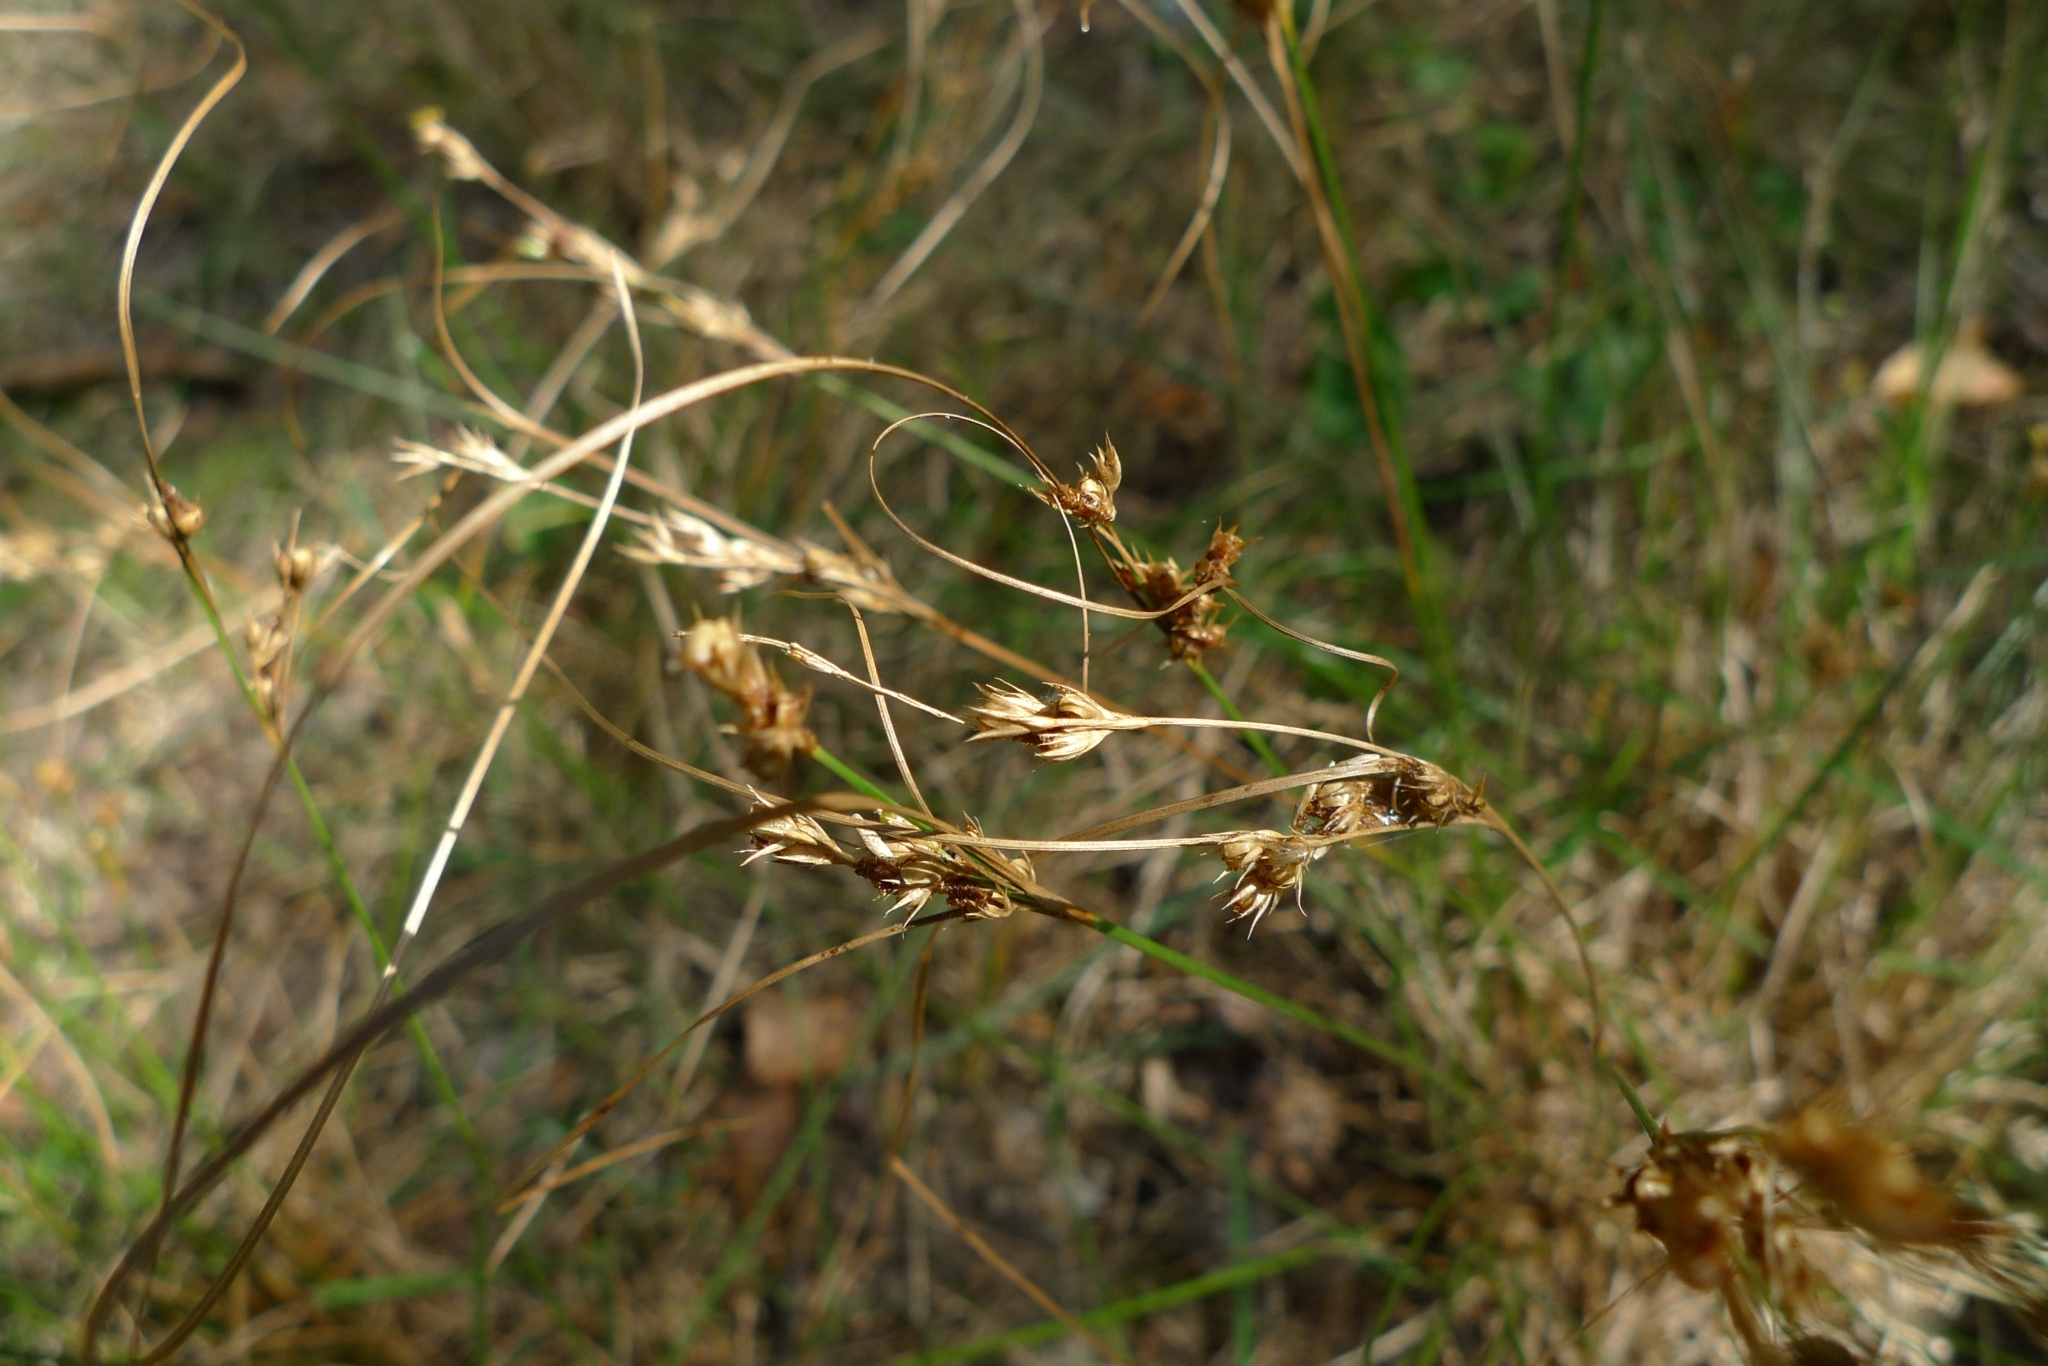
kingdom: Plantae
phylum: Tracheophyta
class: Liliopsida
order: Poales
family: Juncaceae
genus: Juncus
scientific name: Juncus tenuis
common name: Slender rush
